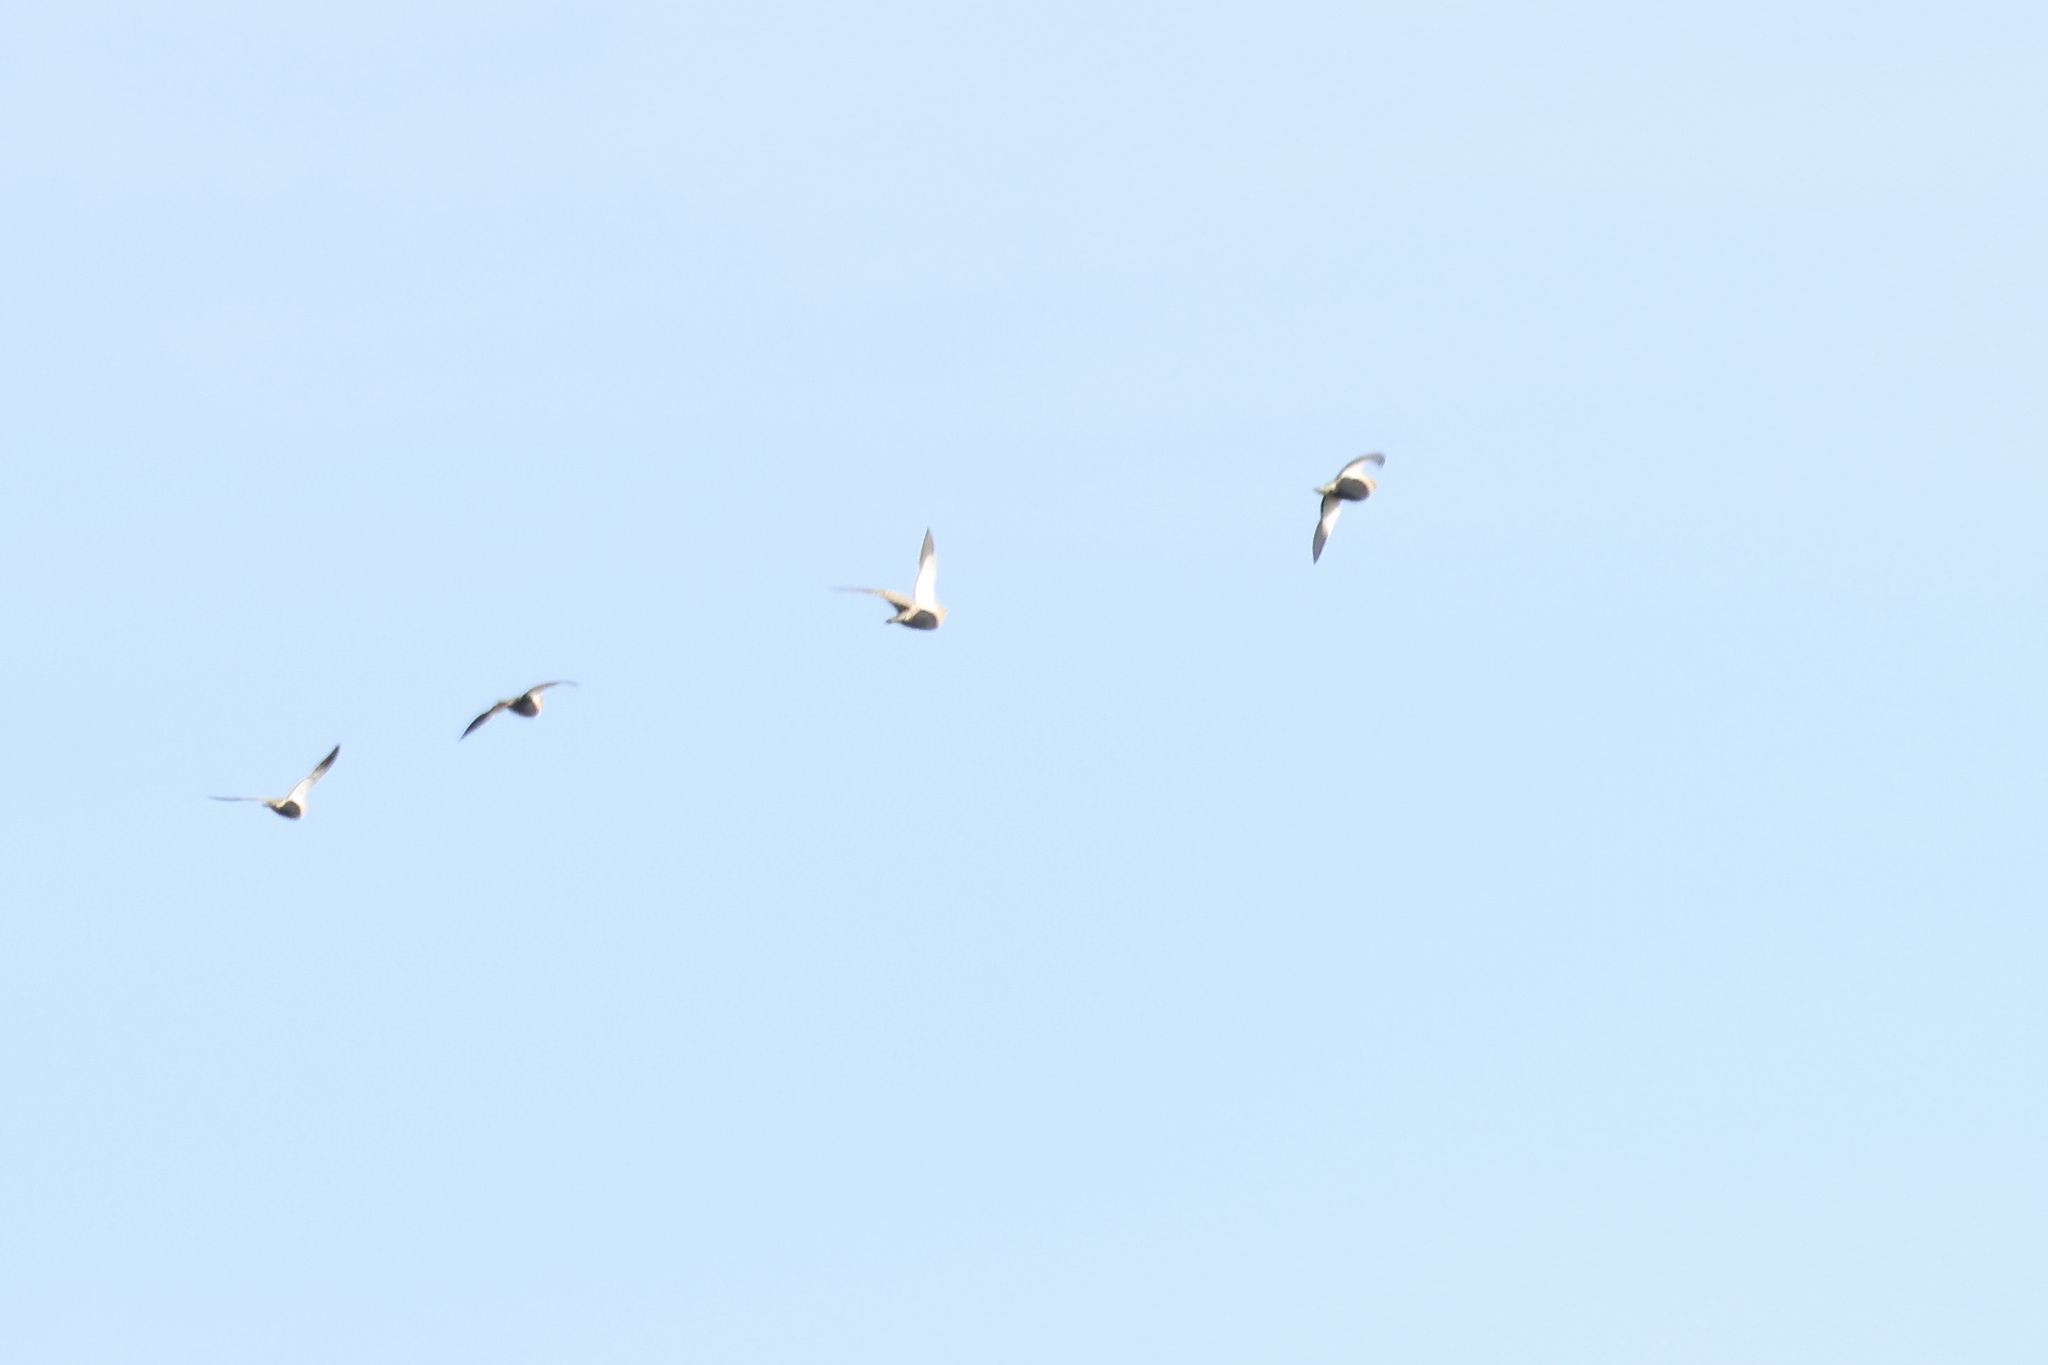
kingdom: Animalia
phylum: Chordata
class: Aves
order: Pteroclidiformes
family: Pteroclididae
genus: Pterocles
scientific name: Pterocles orientalis
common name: Black-bellied sandgrouse
